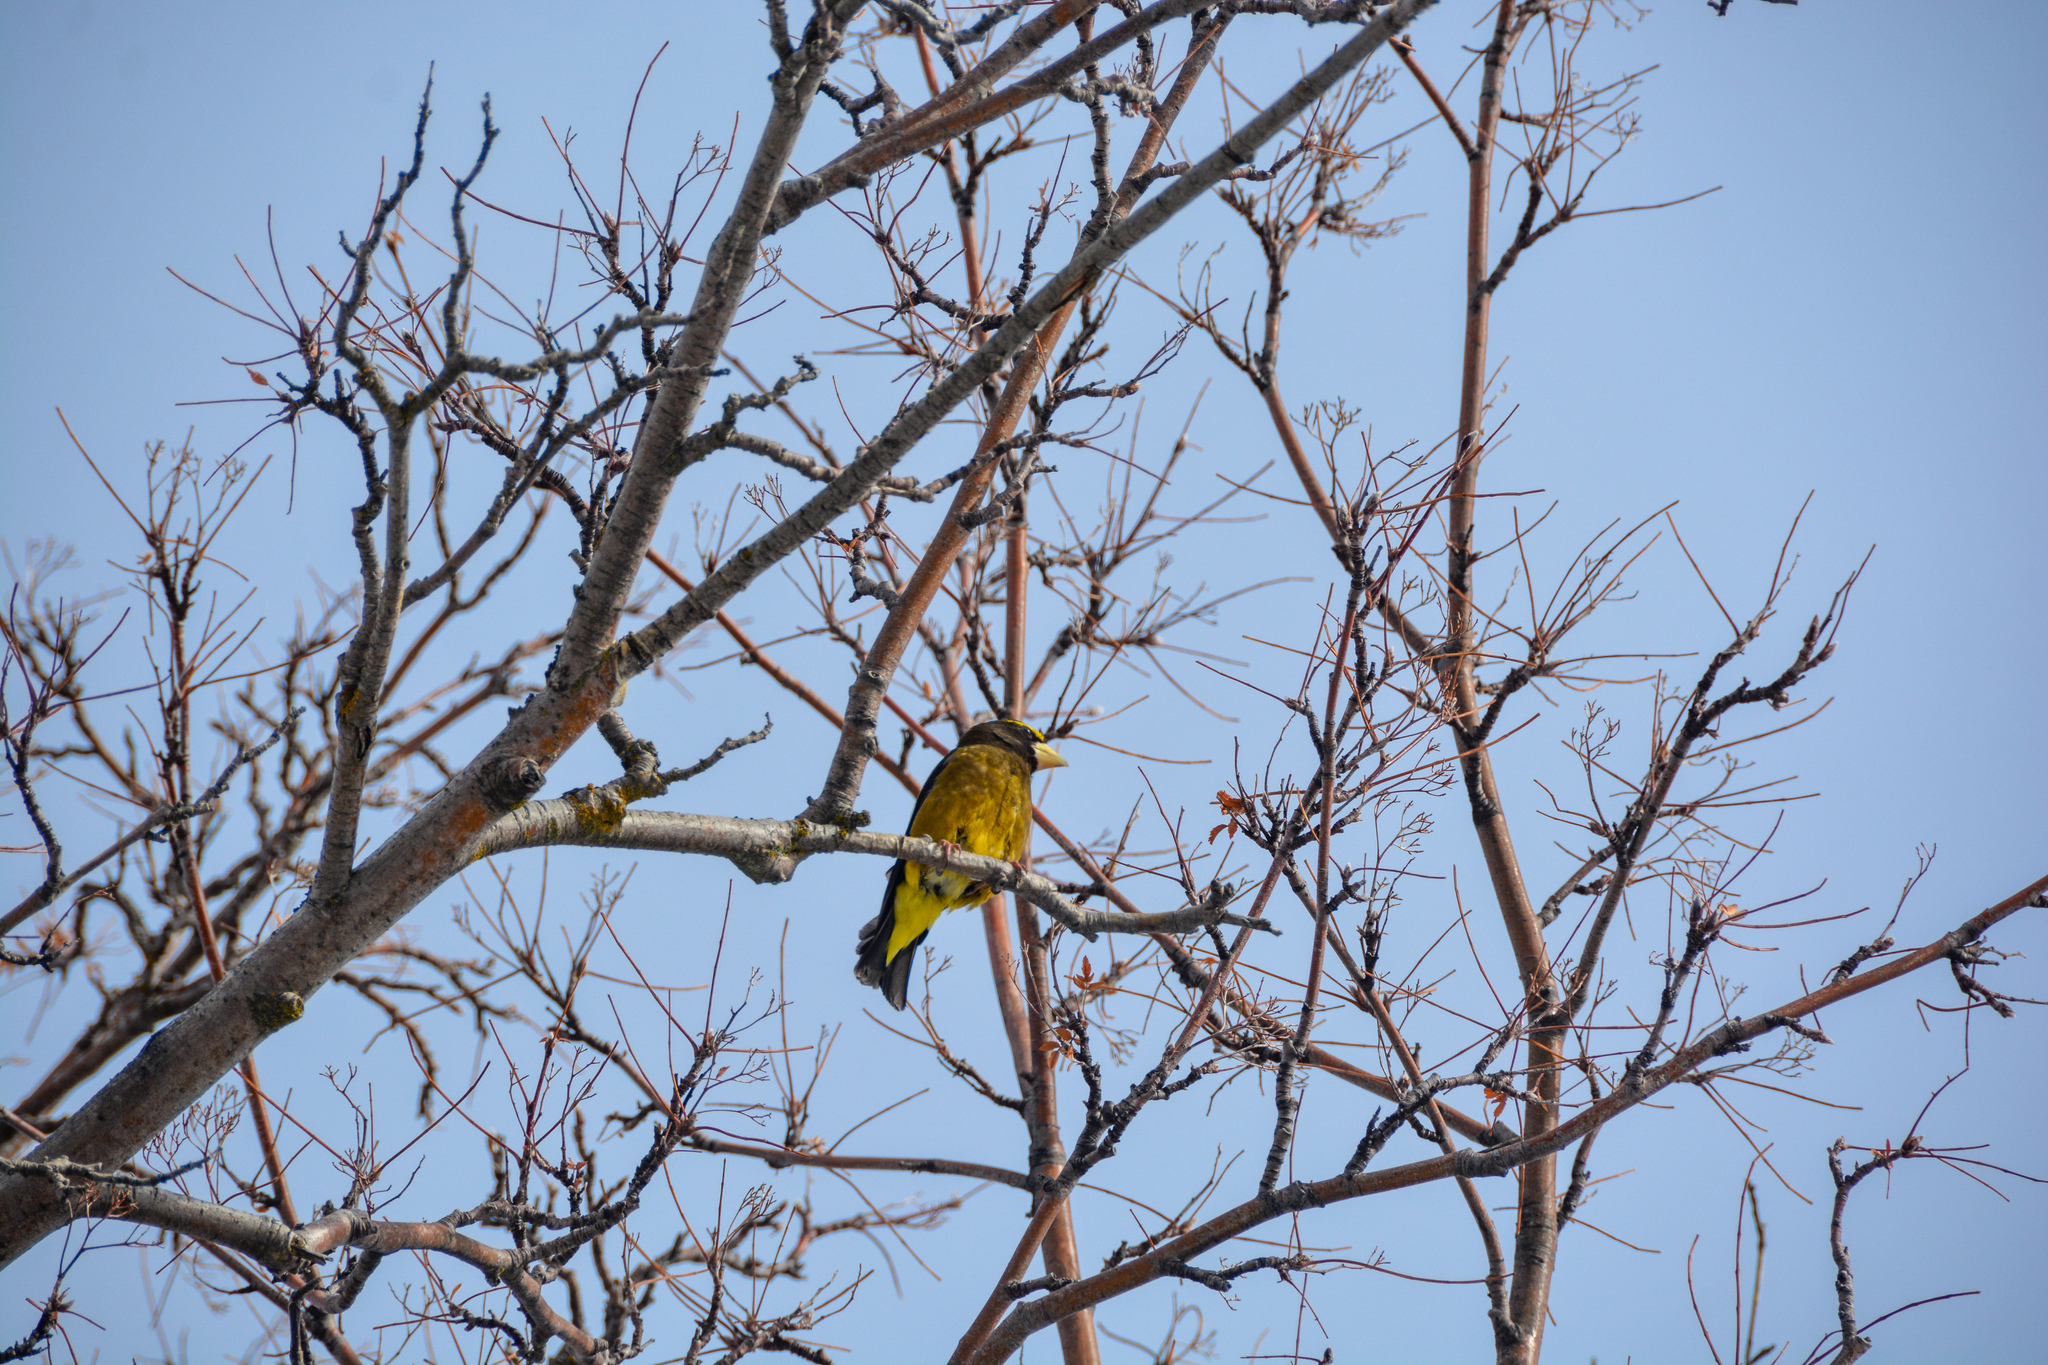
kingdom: Animalia
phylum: Chordata
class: Aves
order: Passeriformes
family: Fringillidae
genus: Hesperiphona
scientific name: Hesperiphona vespertina
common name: Evening grosbeak
